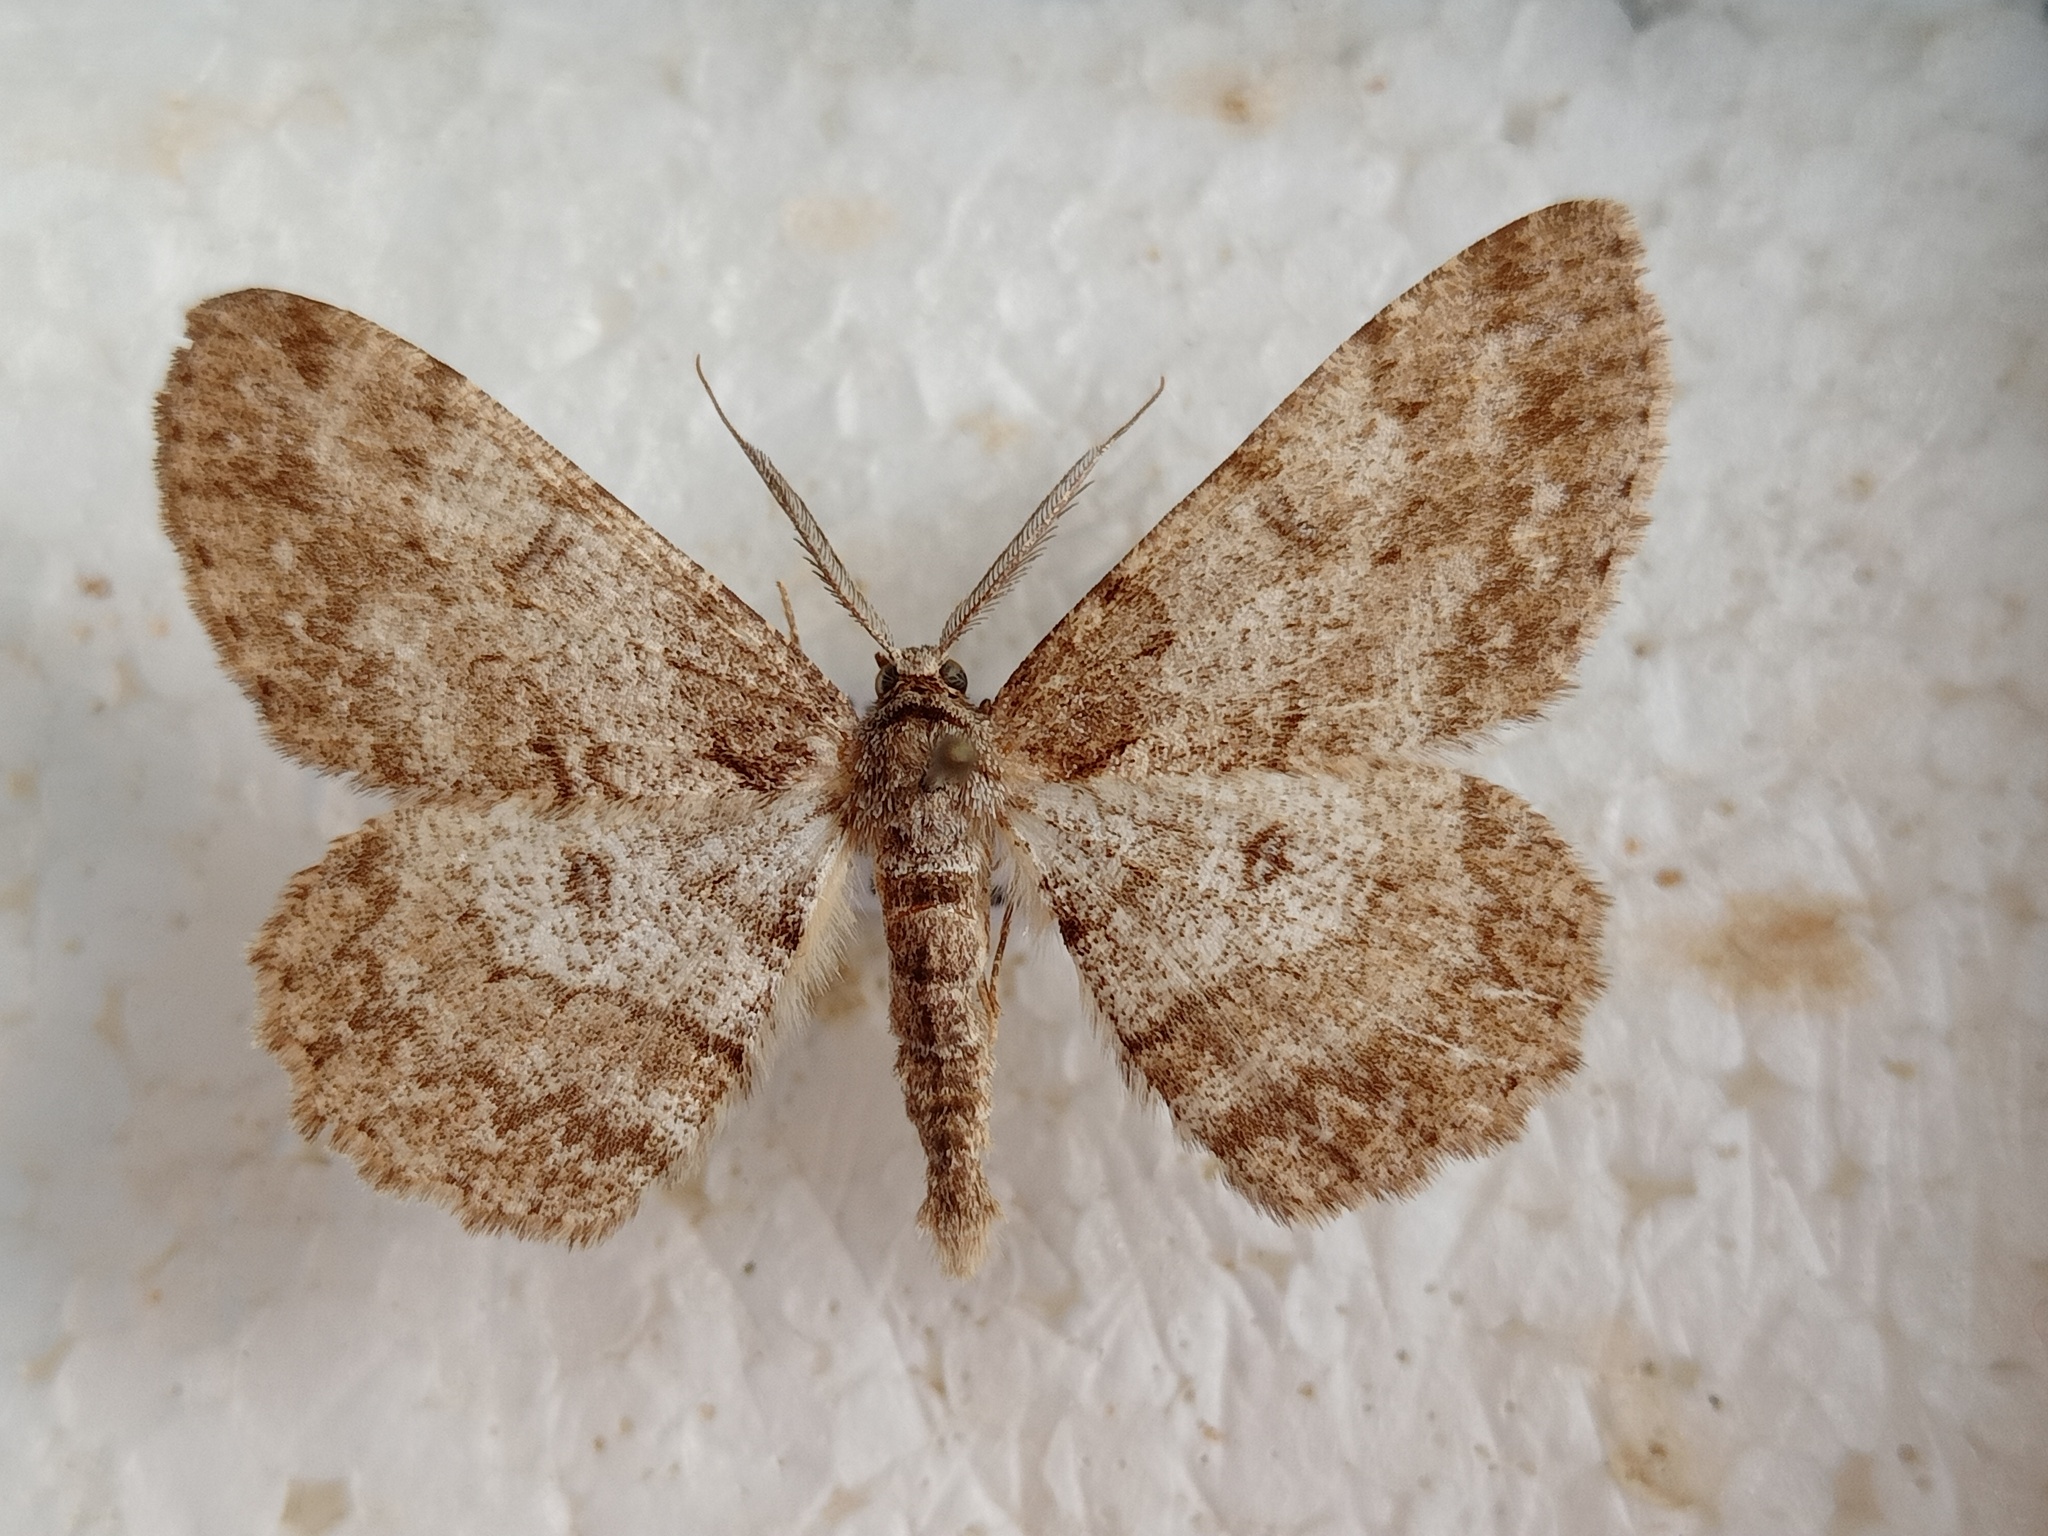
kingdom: Animalia
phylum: Arthropoda
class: Insecta
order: Lepidoptera
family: Geometridae
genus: Hypomecis
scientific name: Hypomecis punctinalis
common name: Pale oak beauty
